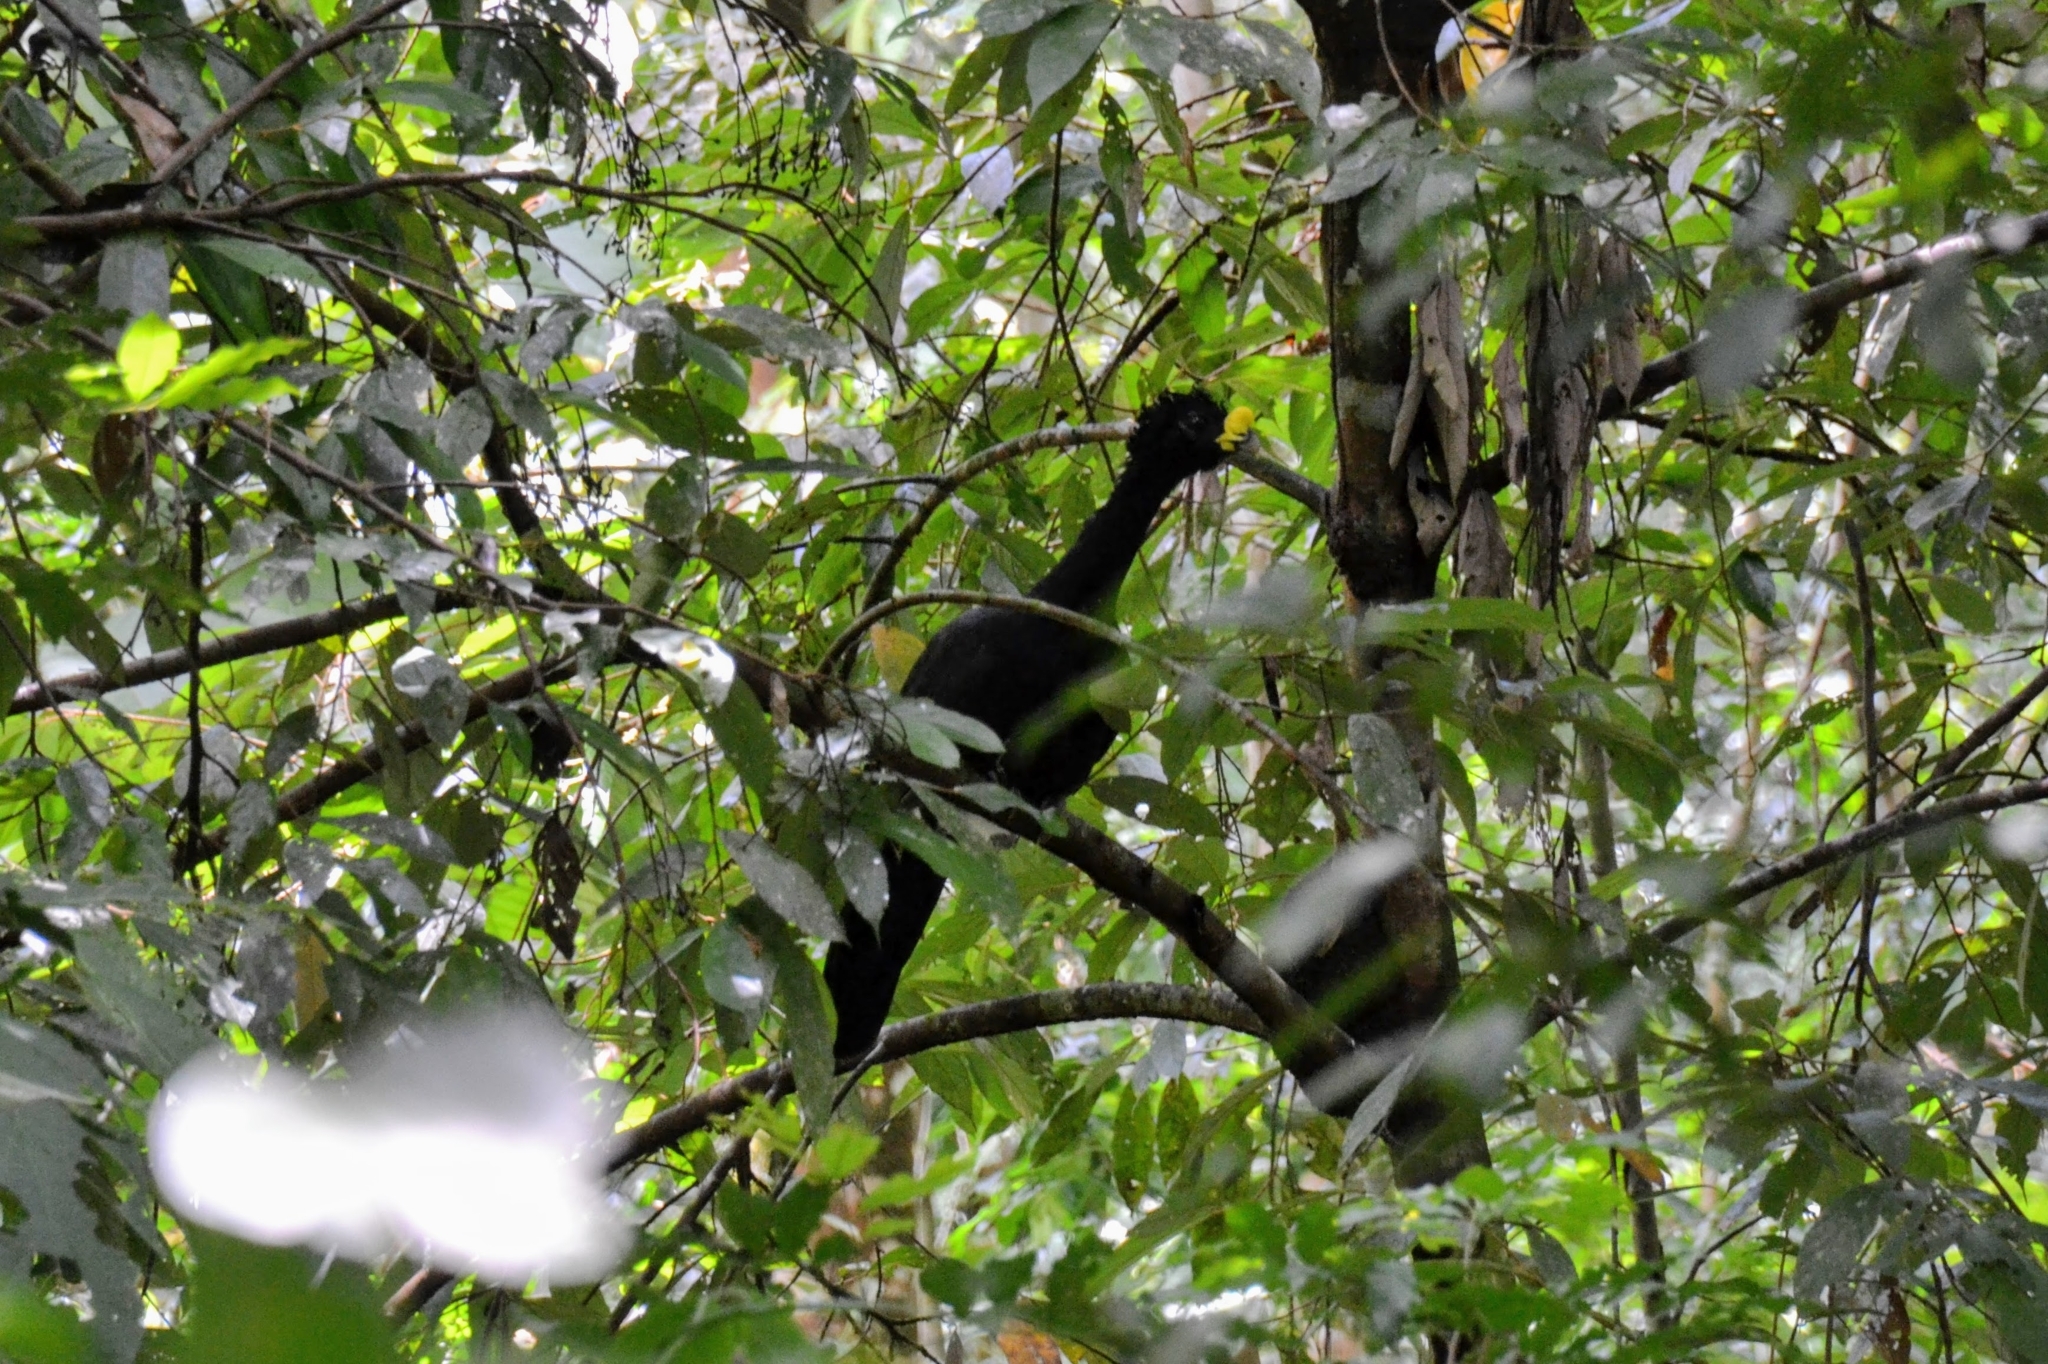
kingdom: Animalia
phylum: Chordata
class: Aves
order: Galliformes
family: Cracidae
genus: Crax
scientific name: Crax rubra
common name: Great curassow
